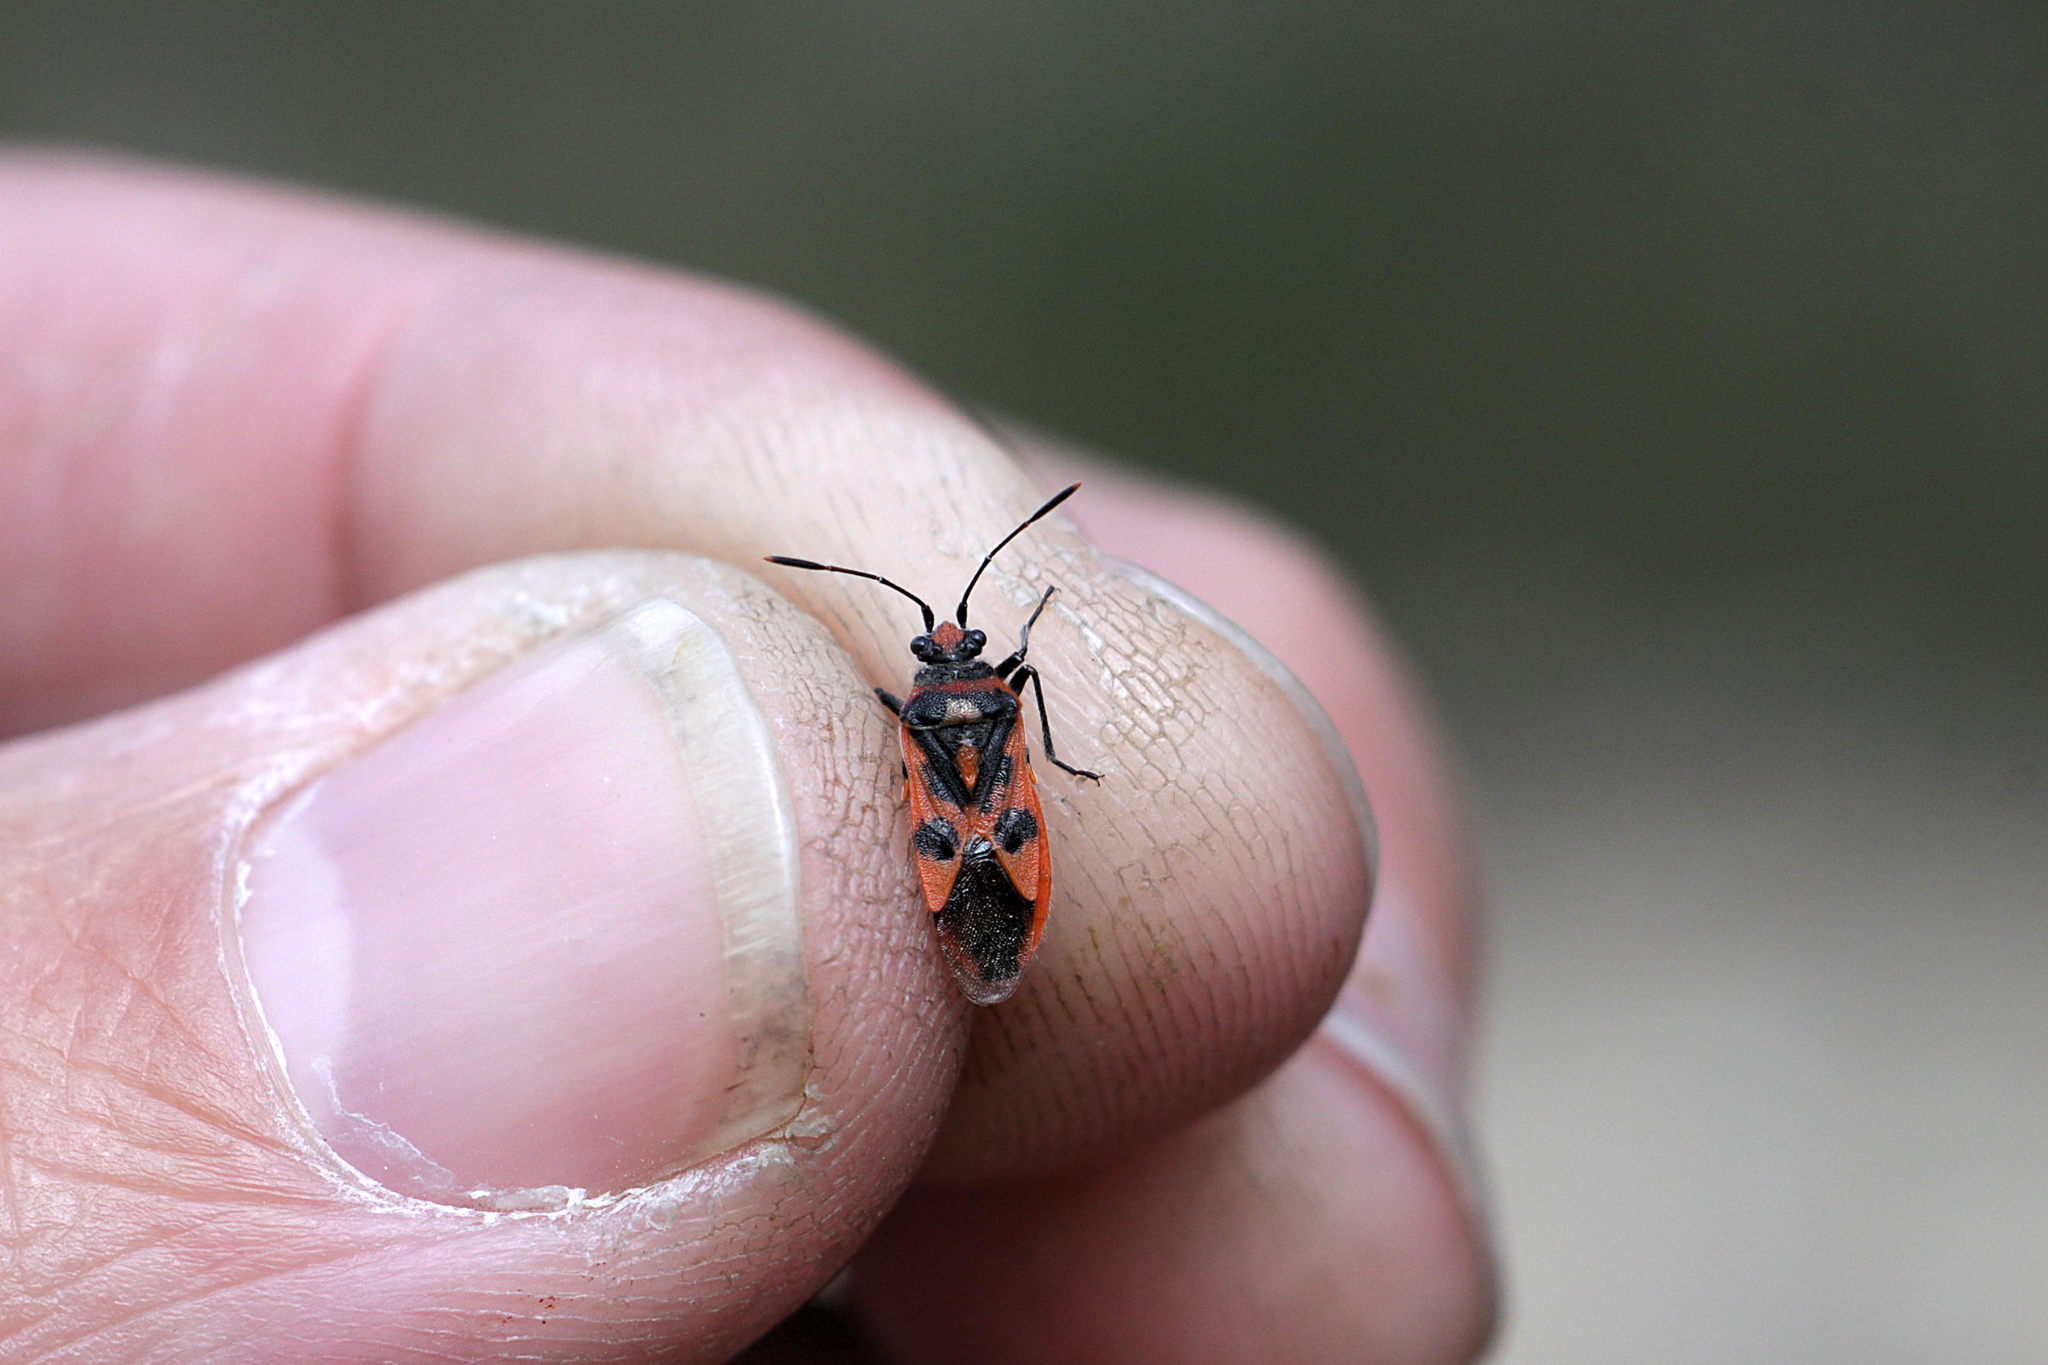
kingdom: Animalia
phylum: Arthropoda
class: Insecta
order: Hemiptera
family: Rhopalidae
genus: Corizus
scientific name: Corizus hyoscyami
